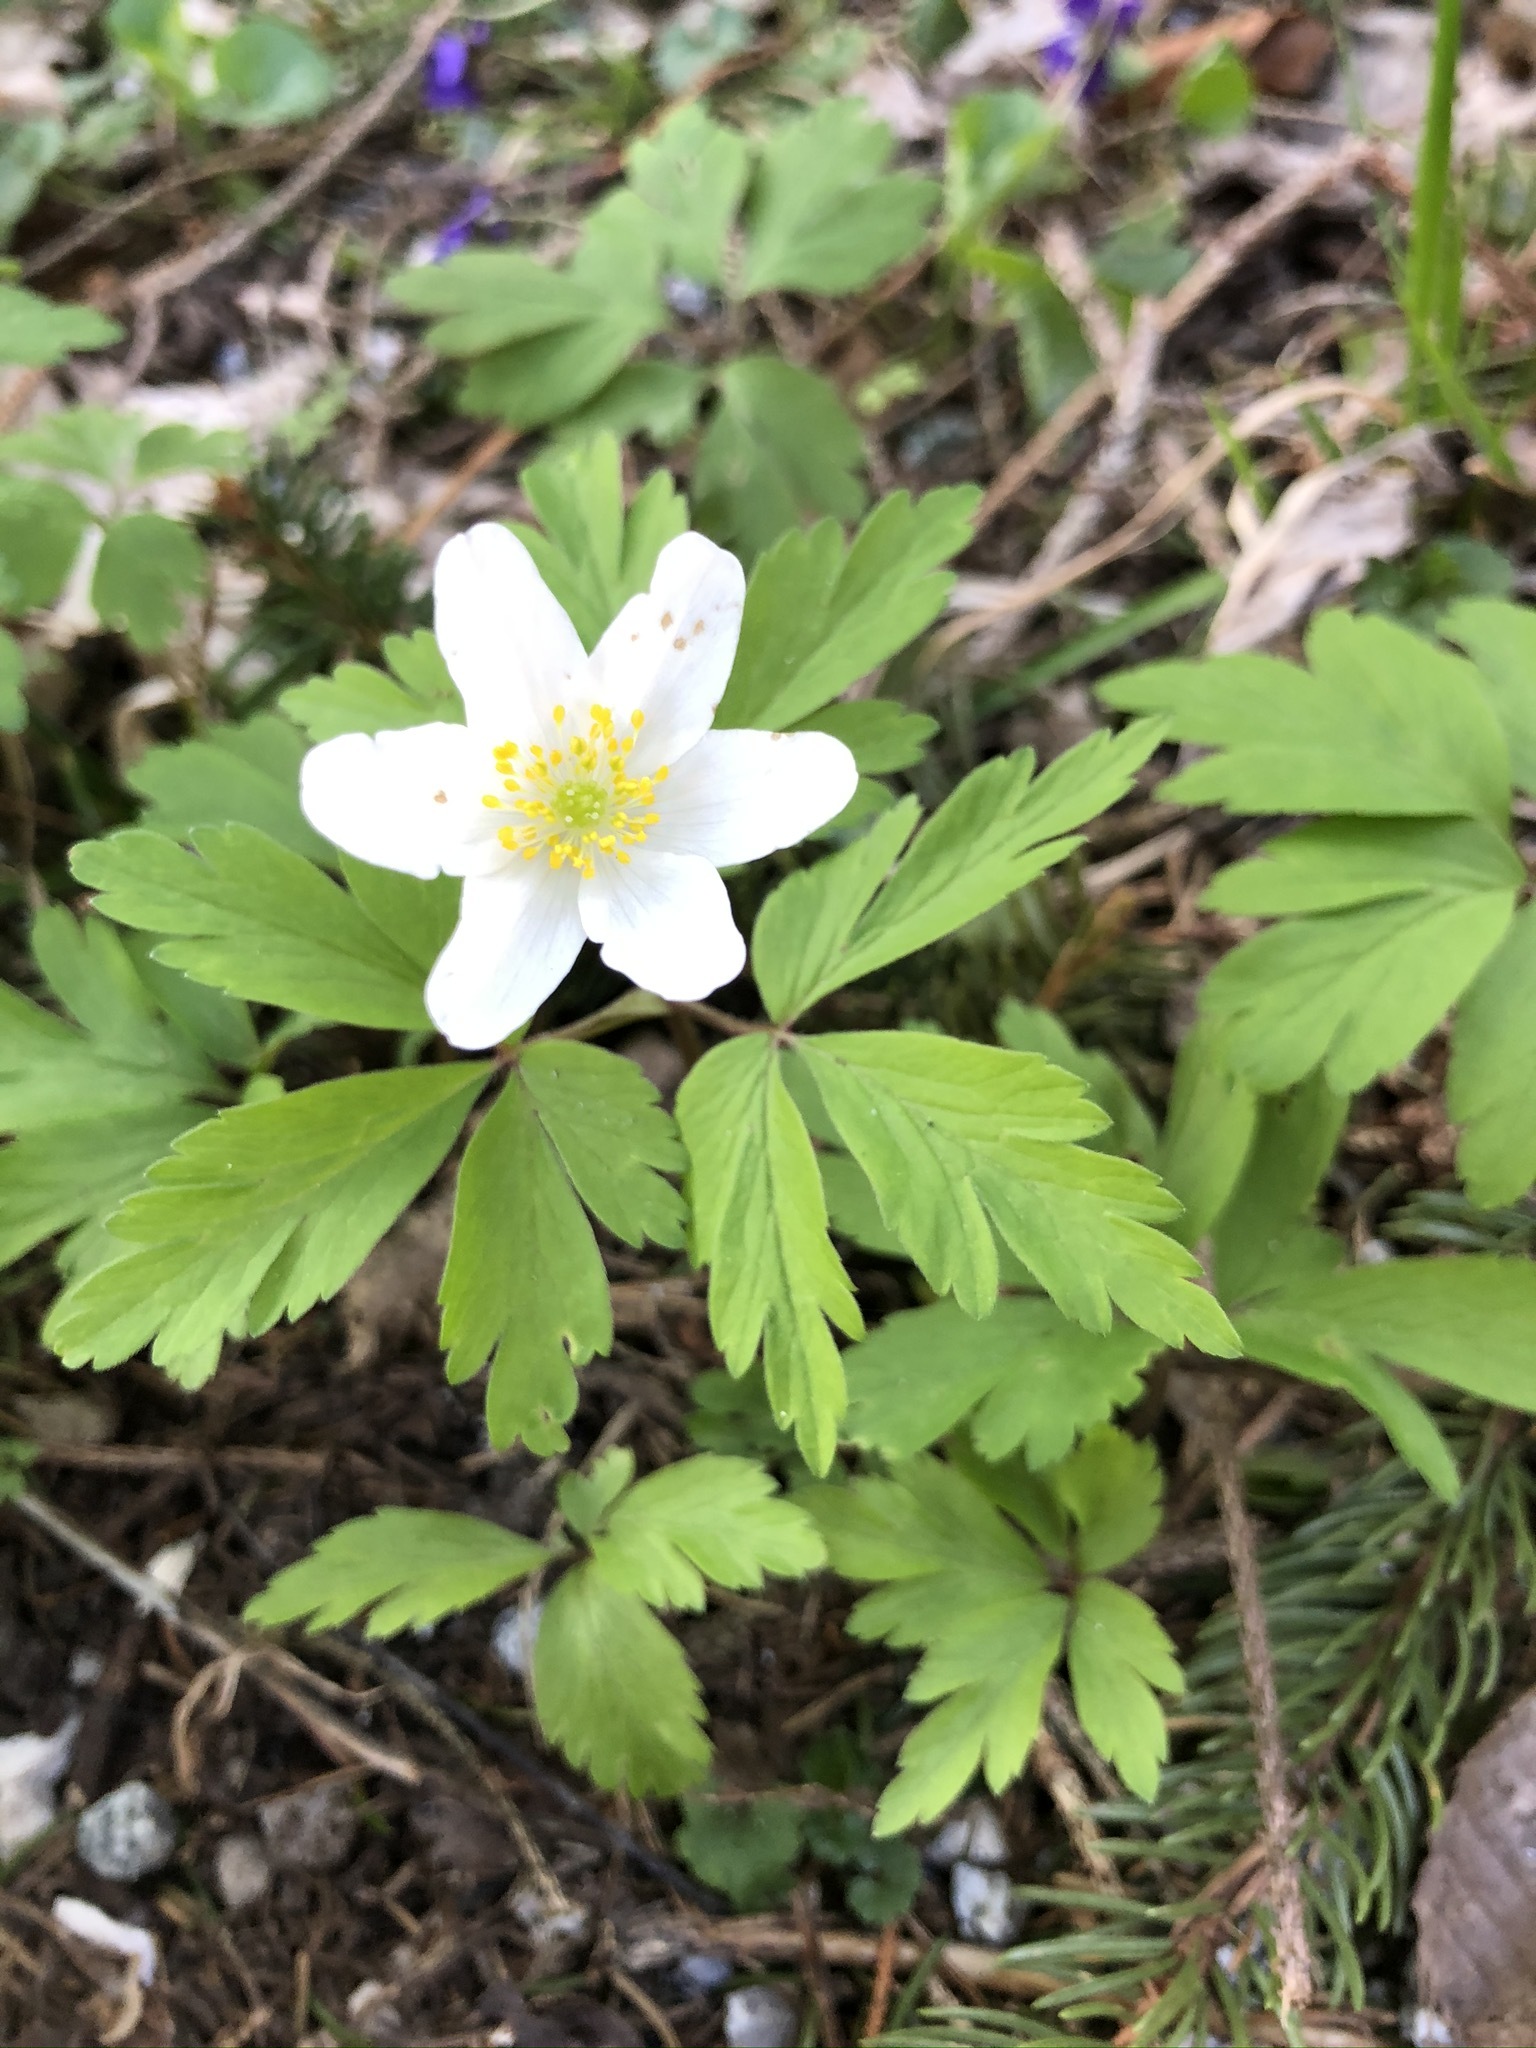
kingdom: Plantae
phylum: Tracheophyta
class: Magnoliopsida
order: Ranunculales
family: Ranunculaceae
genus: Anemone
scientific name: Anemone nemorosa
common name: Wood anemone
